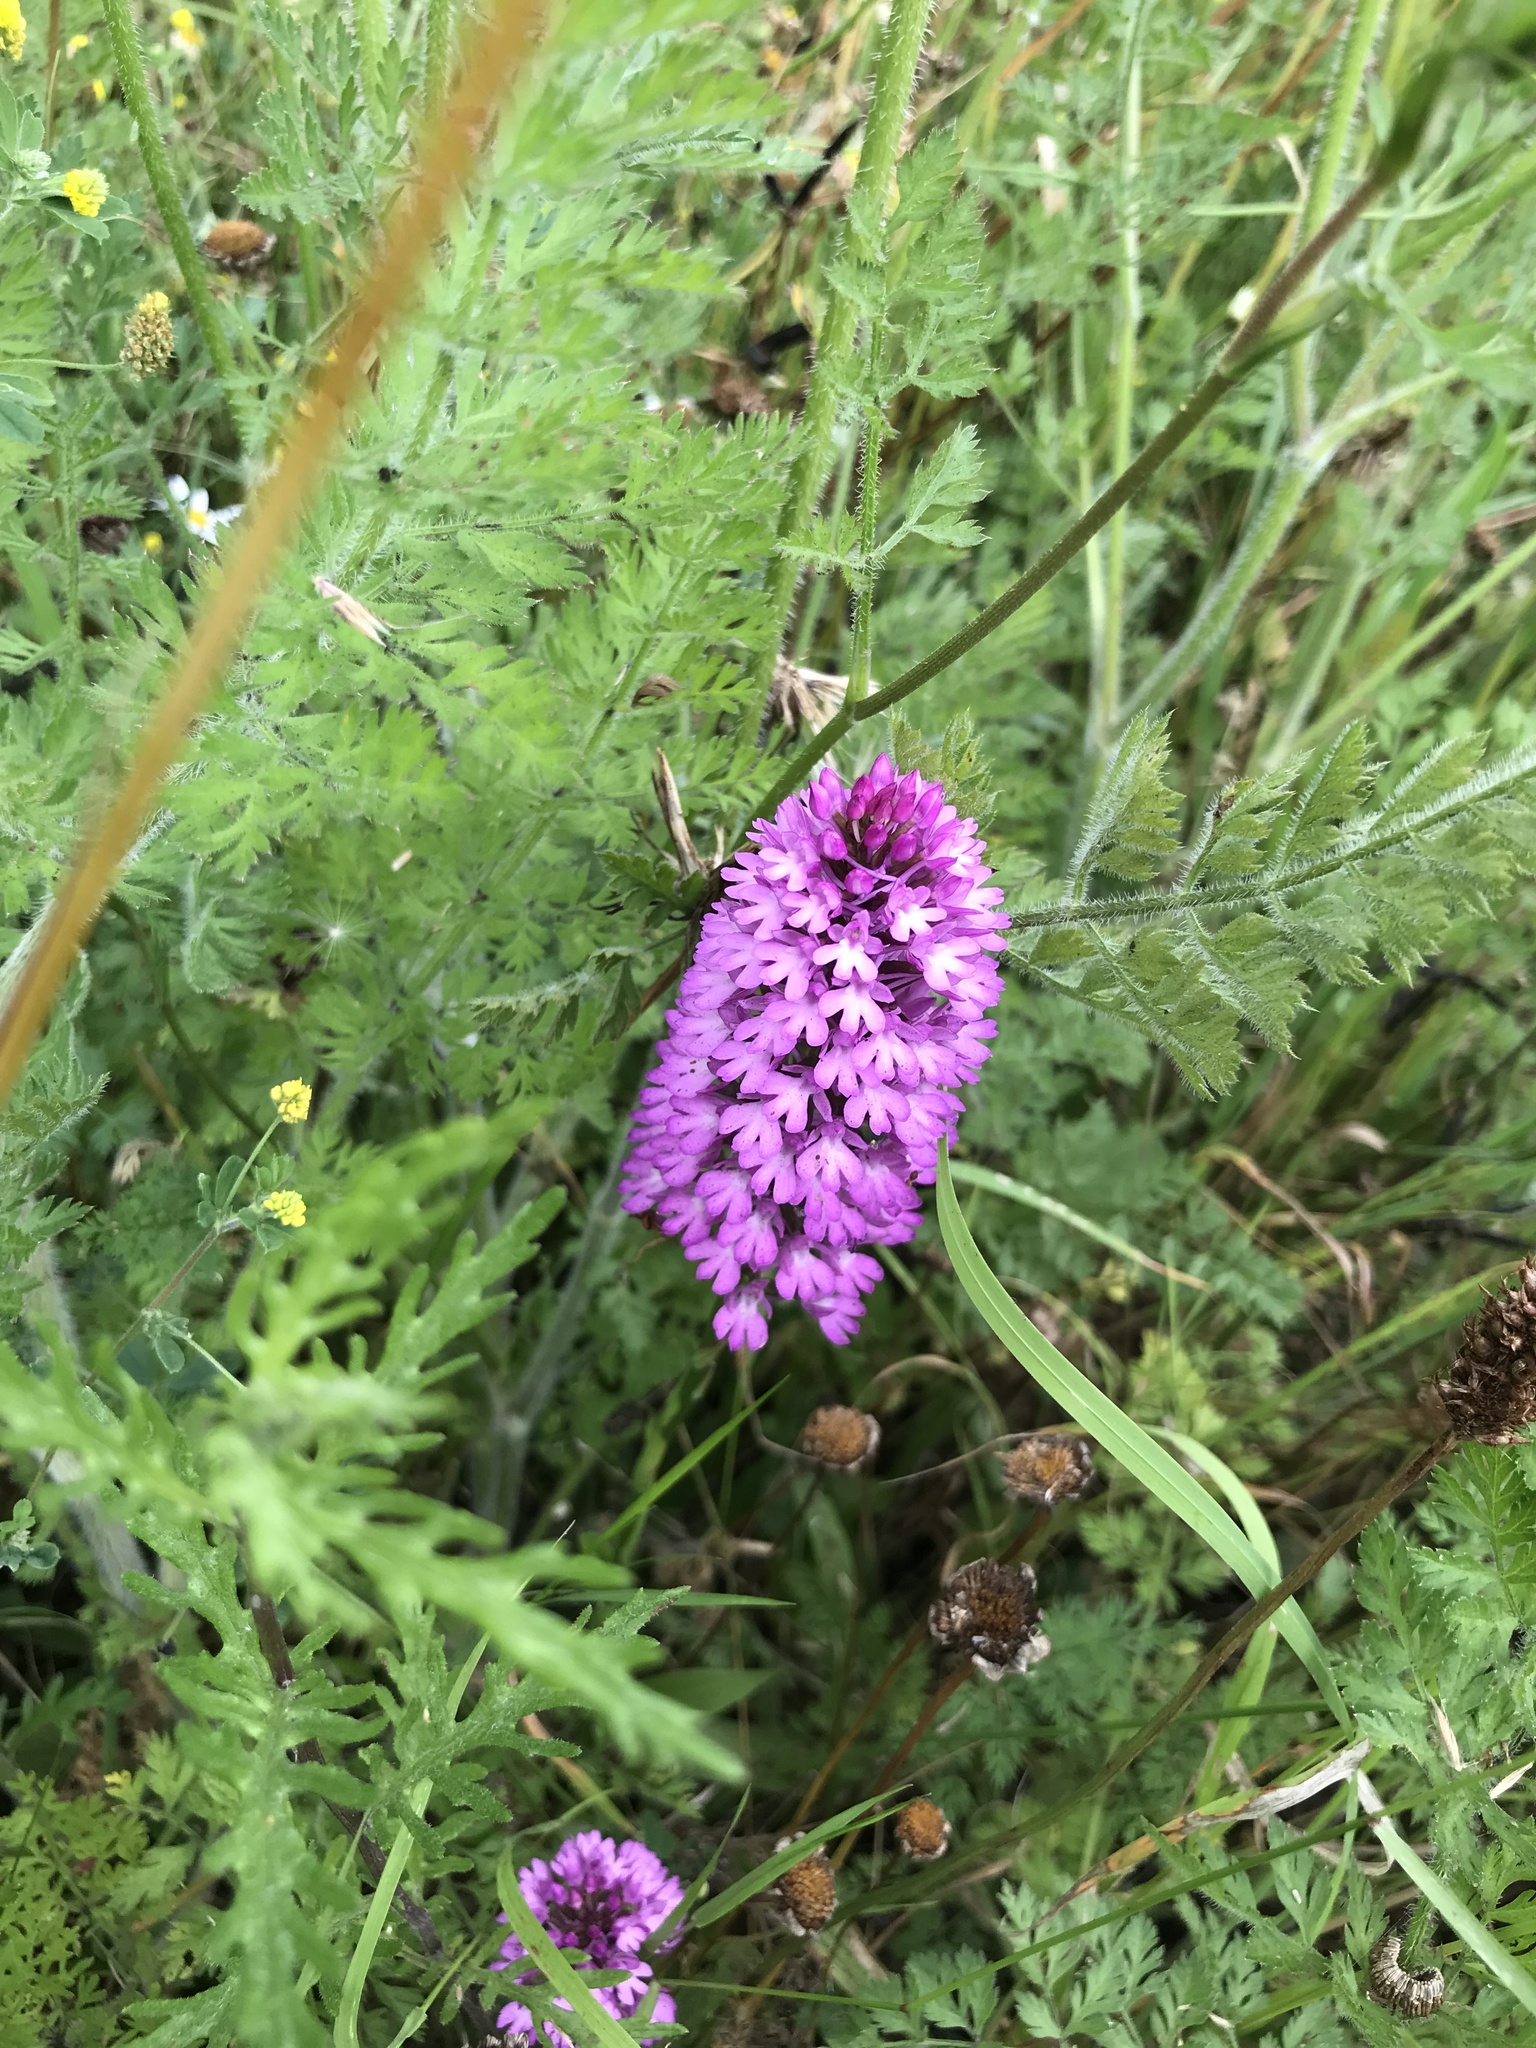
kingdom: Plantae
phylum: Tracheophyta
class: Liliopsida
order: Asparagales
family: Orchidaceae
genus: Anacamptis
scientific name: Anacamptis pyramidalis
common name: Pyramidal orchid
